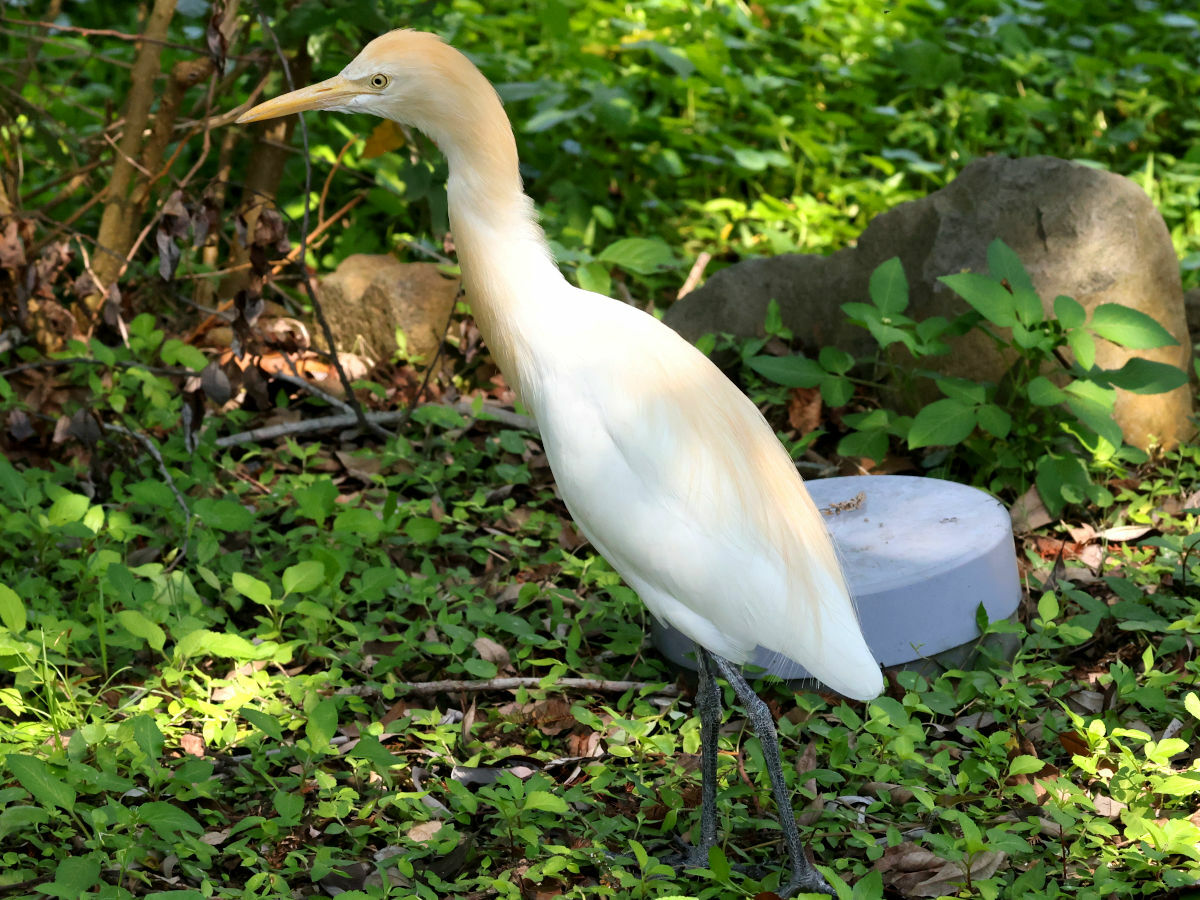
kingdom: Animalia
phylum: Chordata
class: Aves
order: Pelecaniformes
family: Ardeidae
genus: Bubulcus
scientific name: Bubulcus coromandus
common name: Eastern cattle egret
